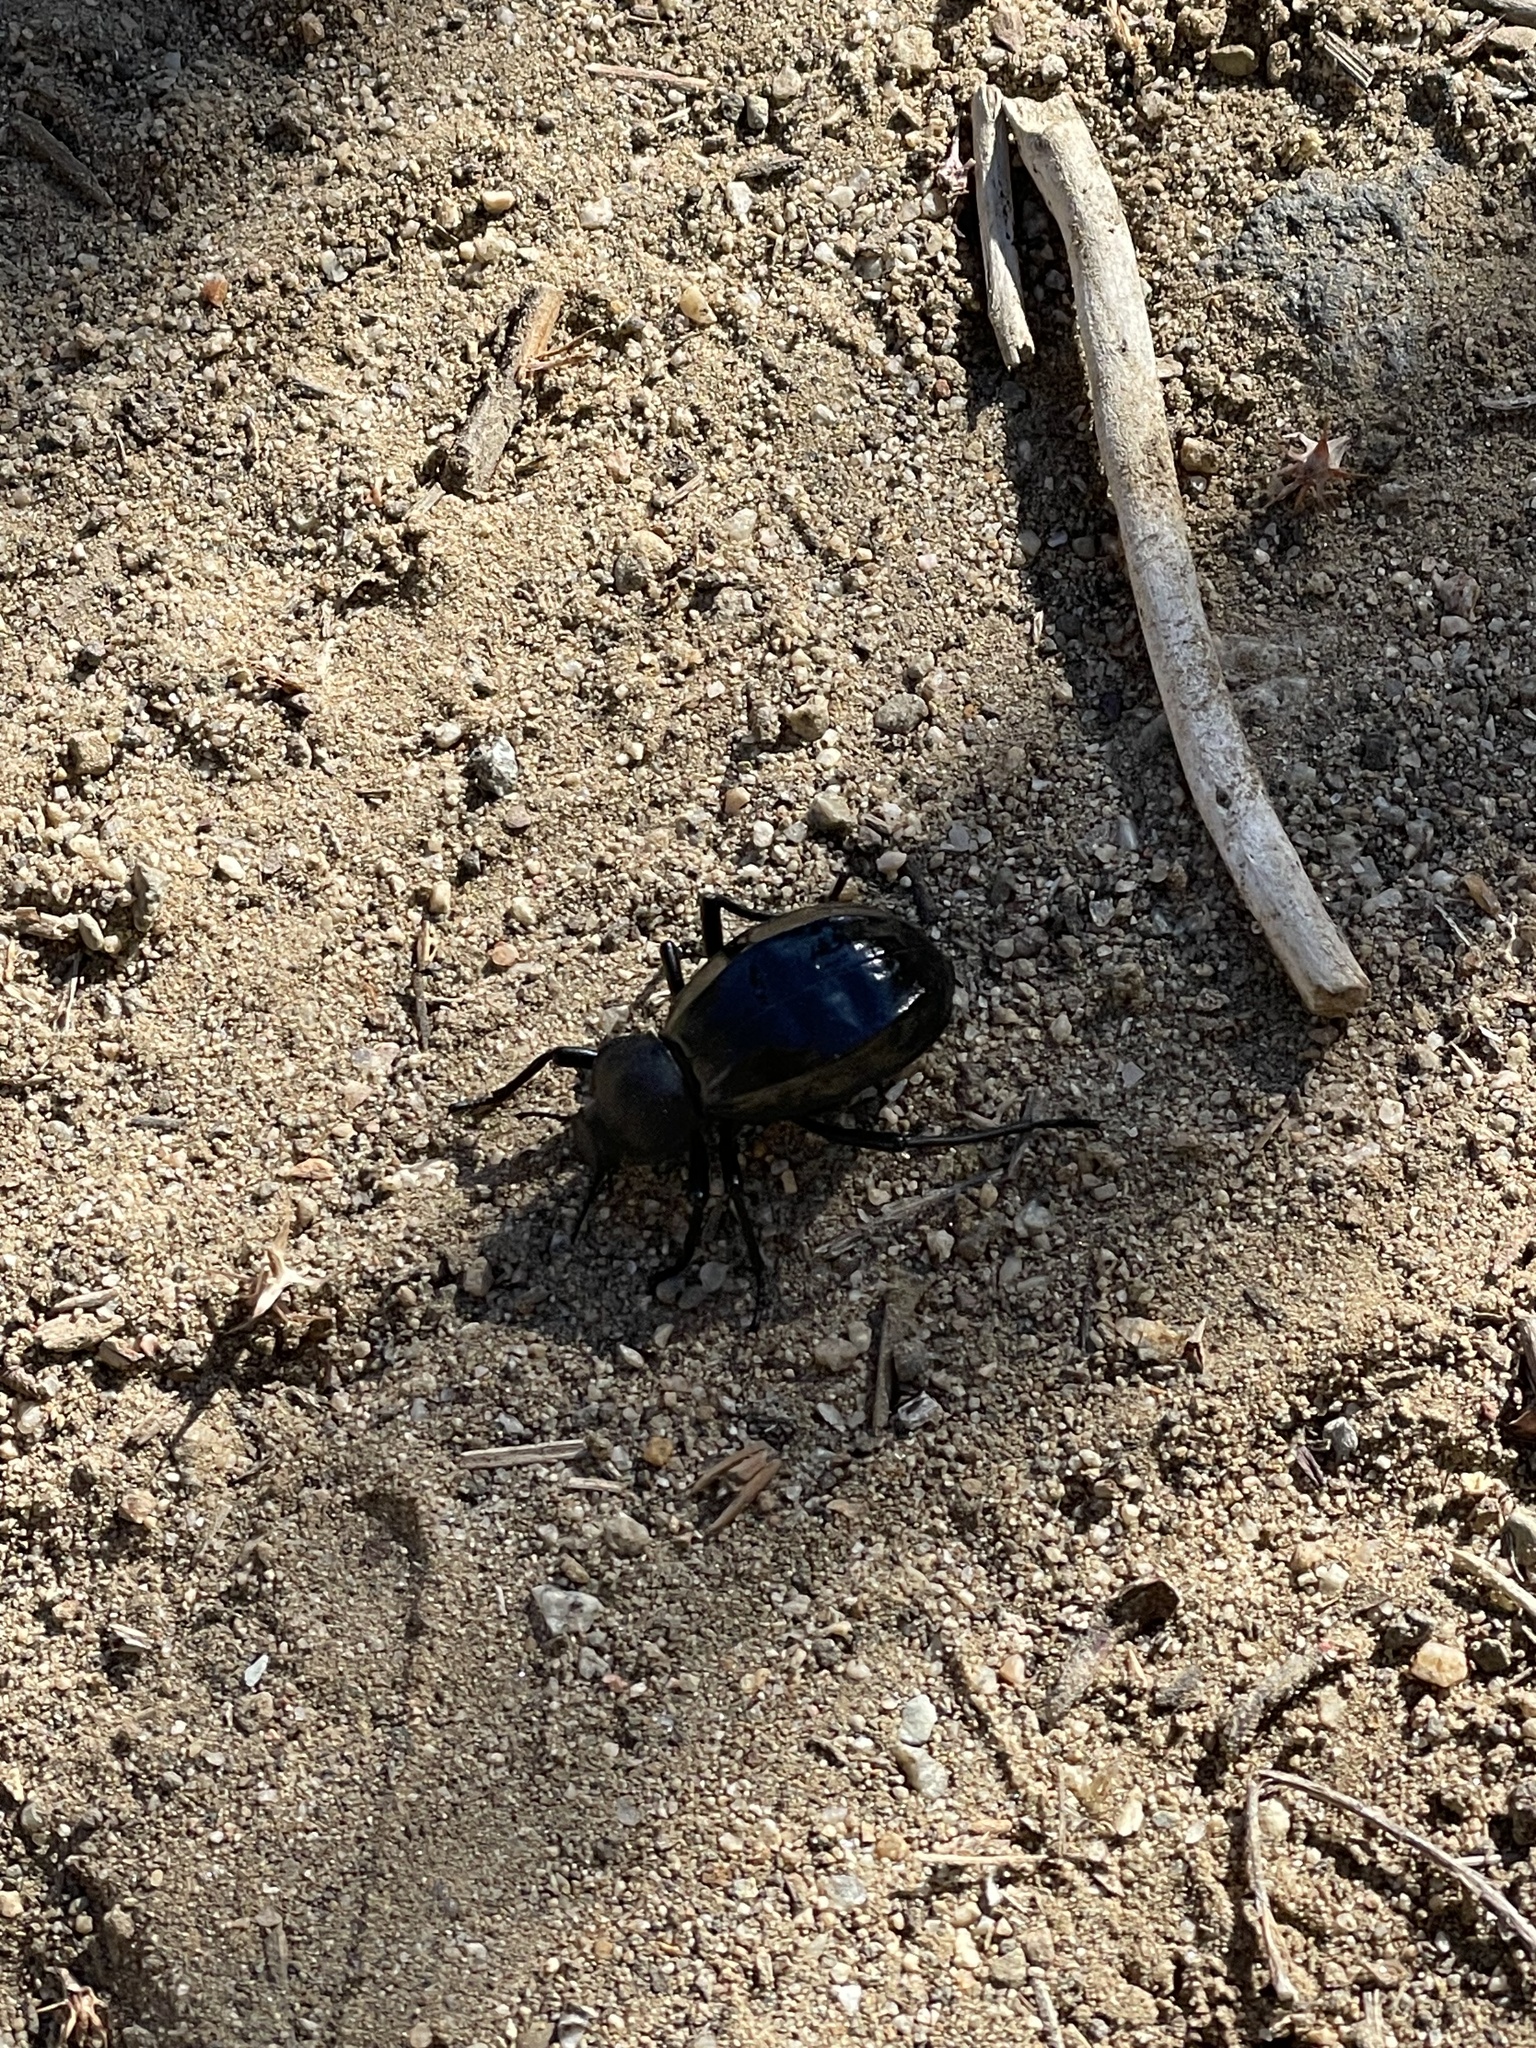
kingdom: Animalia
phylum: Arthropoda
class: Insecta
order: Coleoptera
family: Tenebrionidae
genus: Philolithus
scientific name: Philolithus
